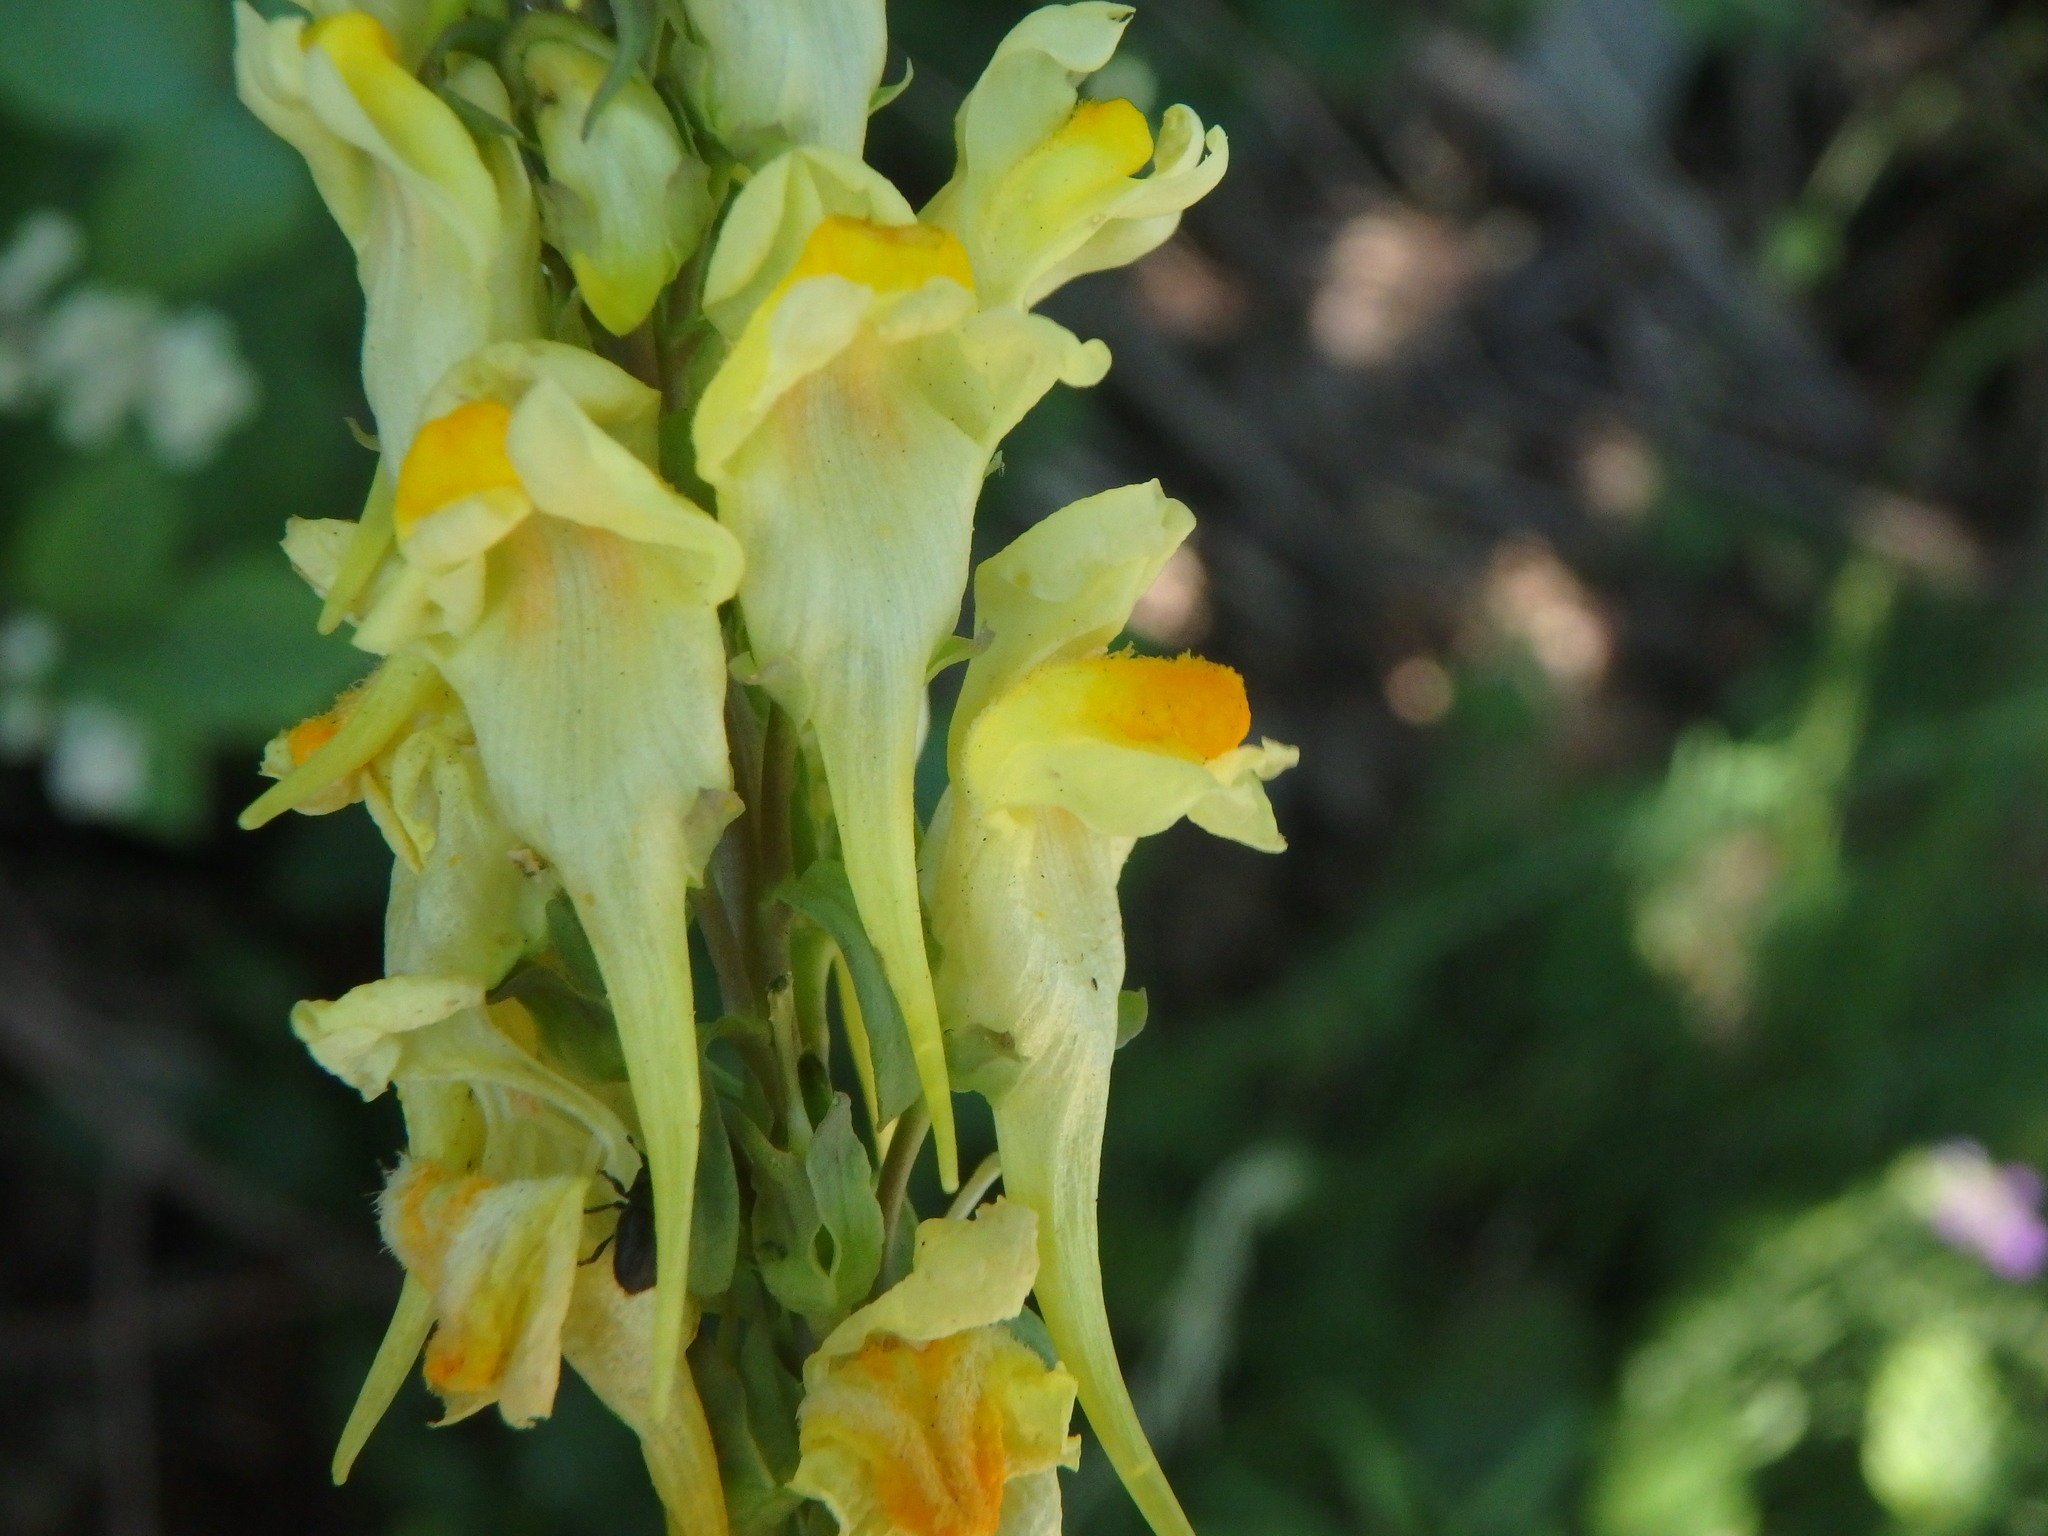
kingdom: Plantae
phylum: Tracheophyta
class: Magnoliopsida
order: Lamiales
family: Plantaginaceae
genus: Linaria
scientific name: Linaria vulgaris
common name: Butter and eggs
